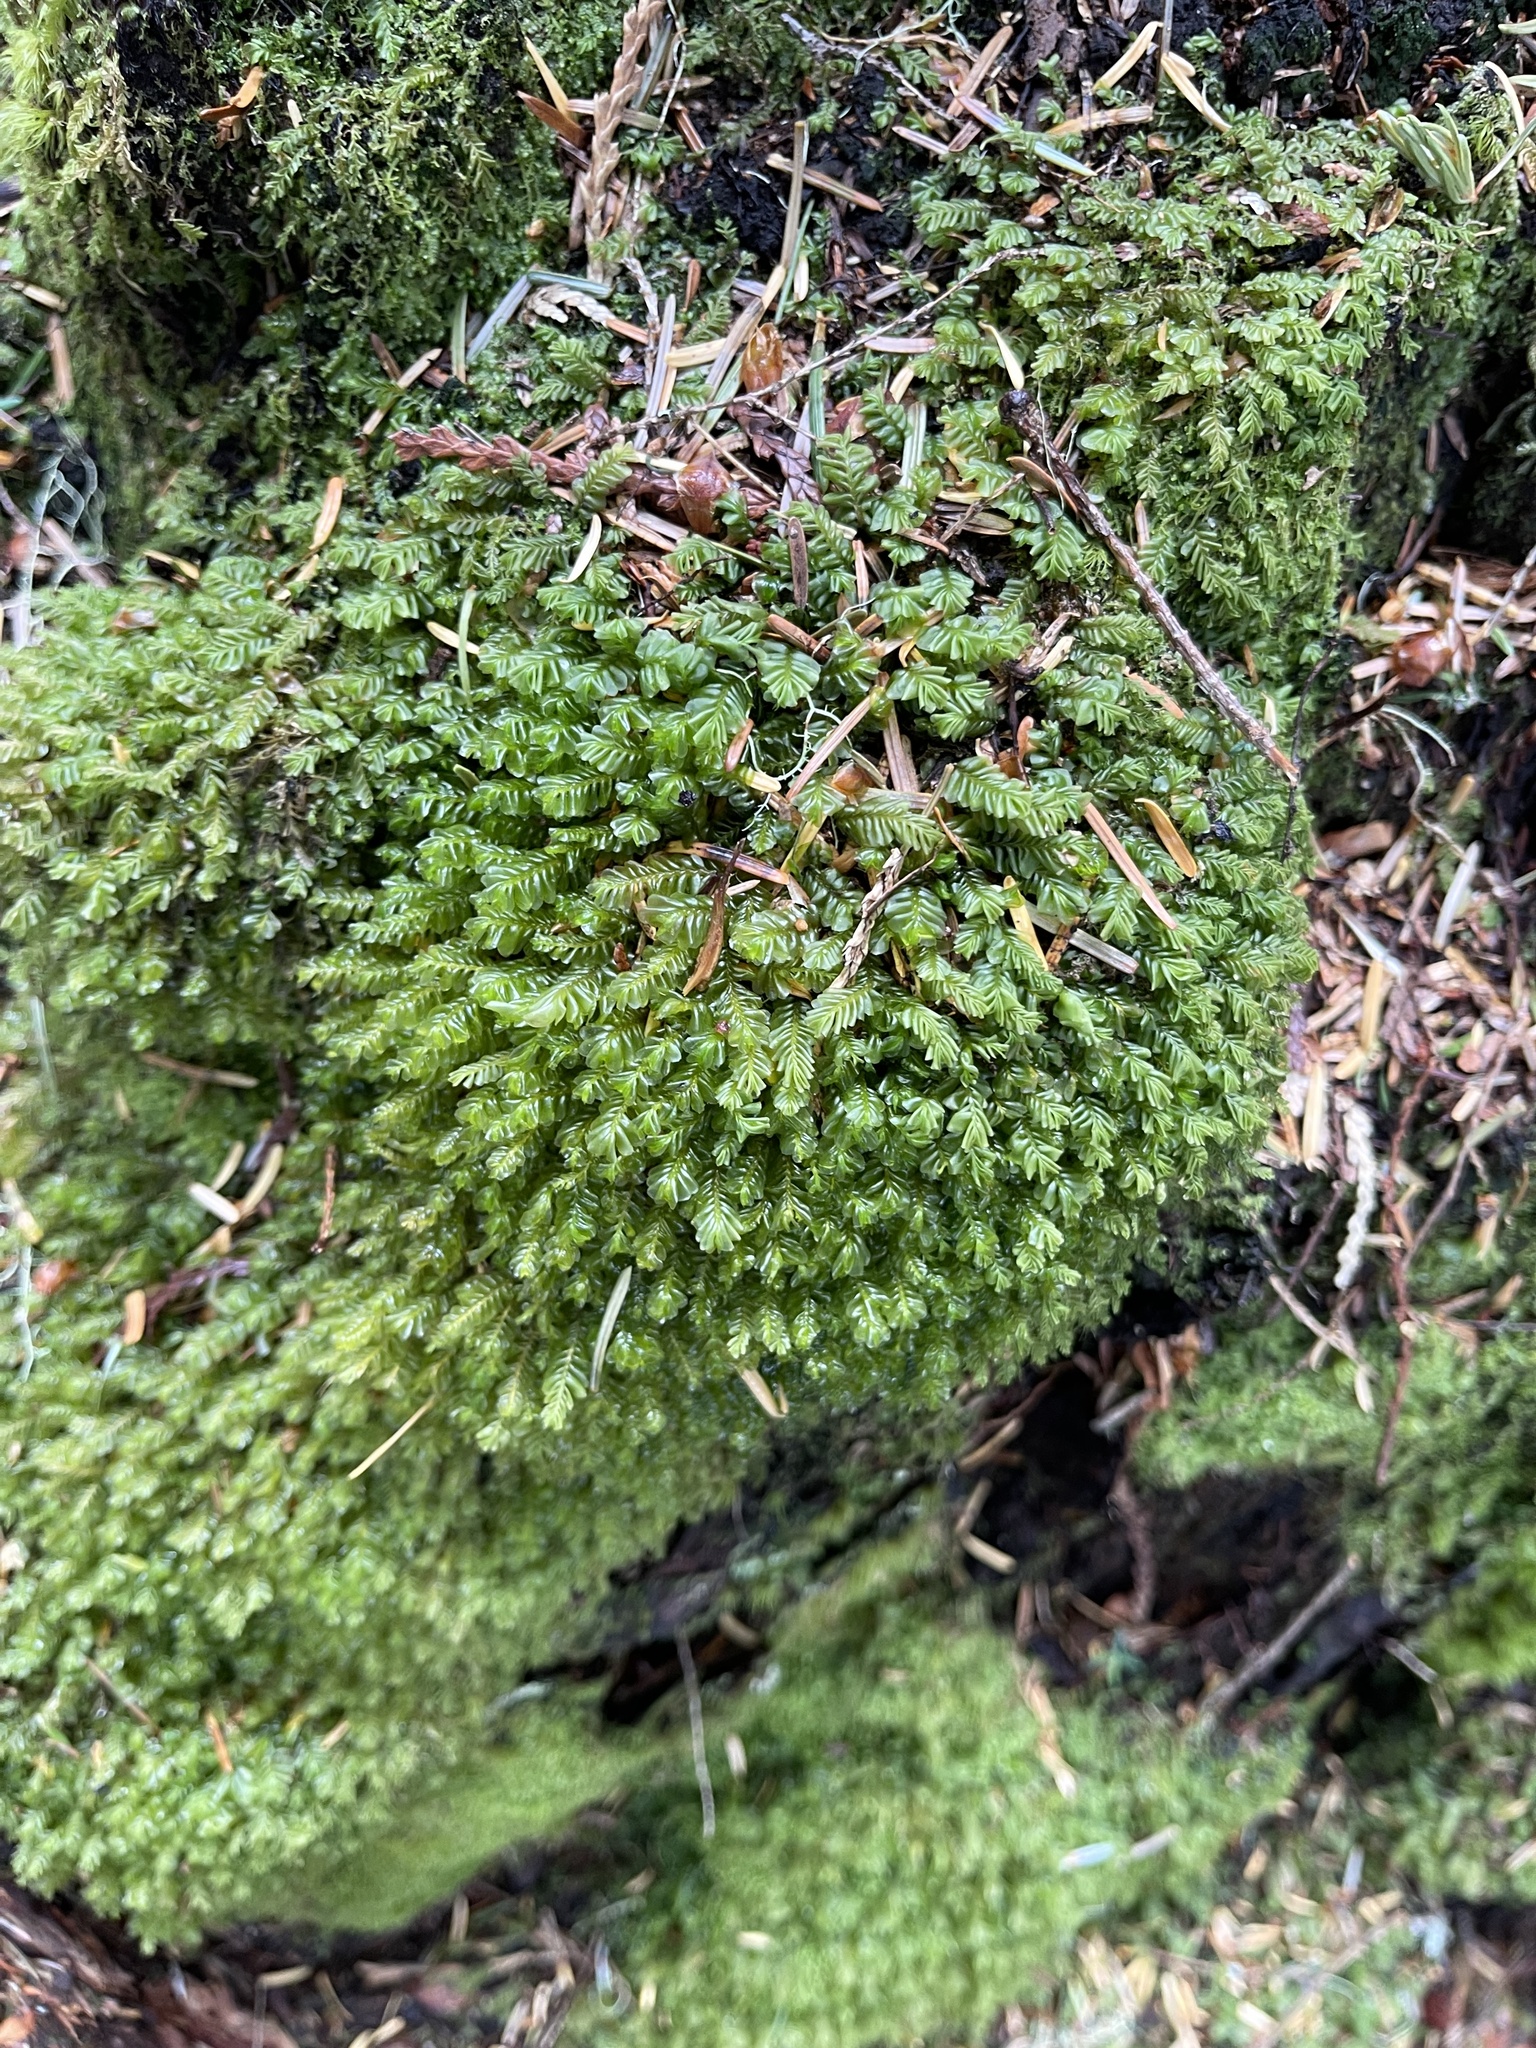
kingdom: Plantae
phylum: Marchantiophyta
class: Jungermanniopsida
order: Jungermanniales
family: Plagiochilaceae
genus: Plagiochila
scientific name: Plagiochila porelloides
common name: Lesser featherwort
